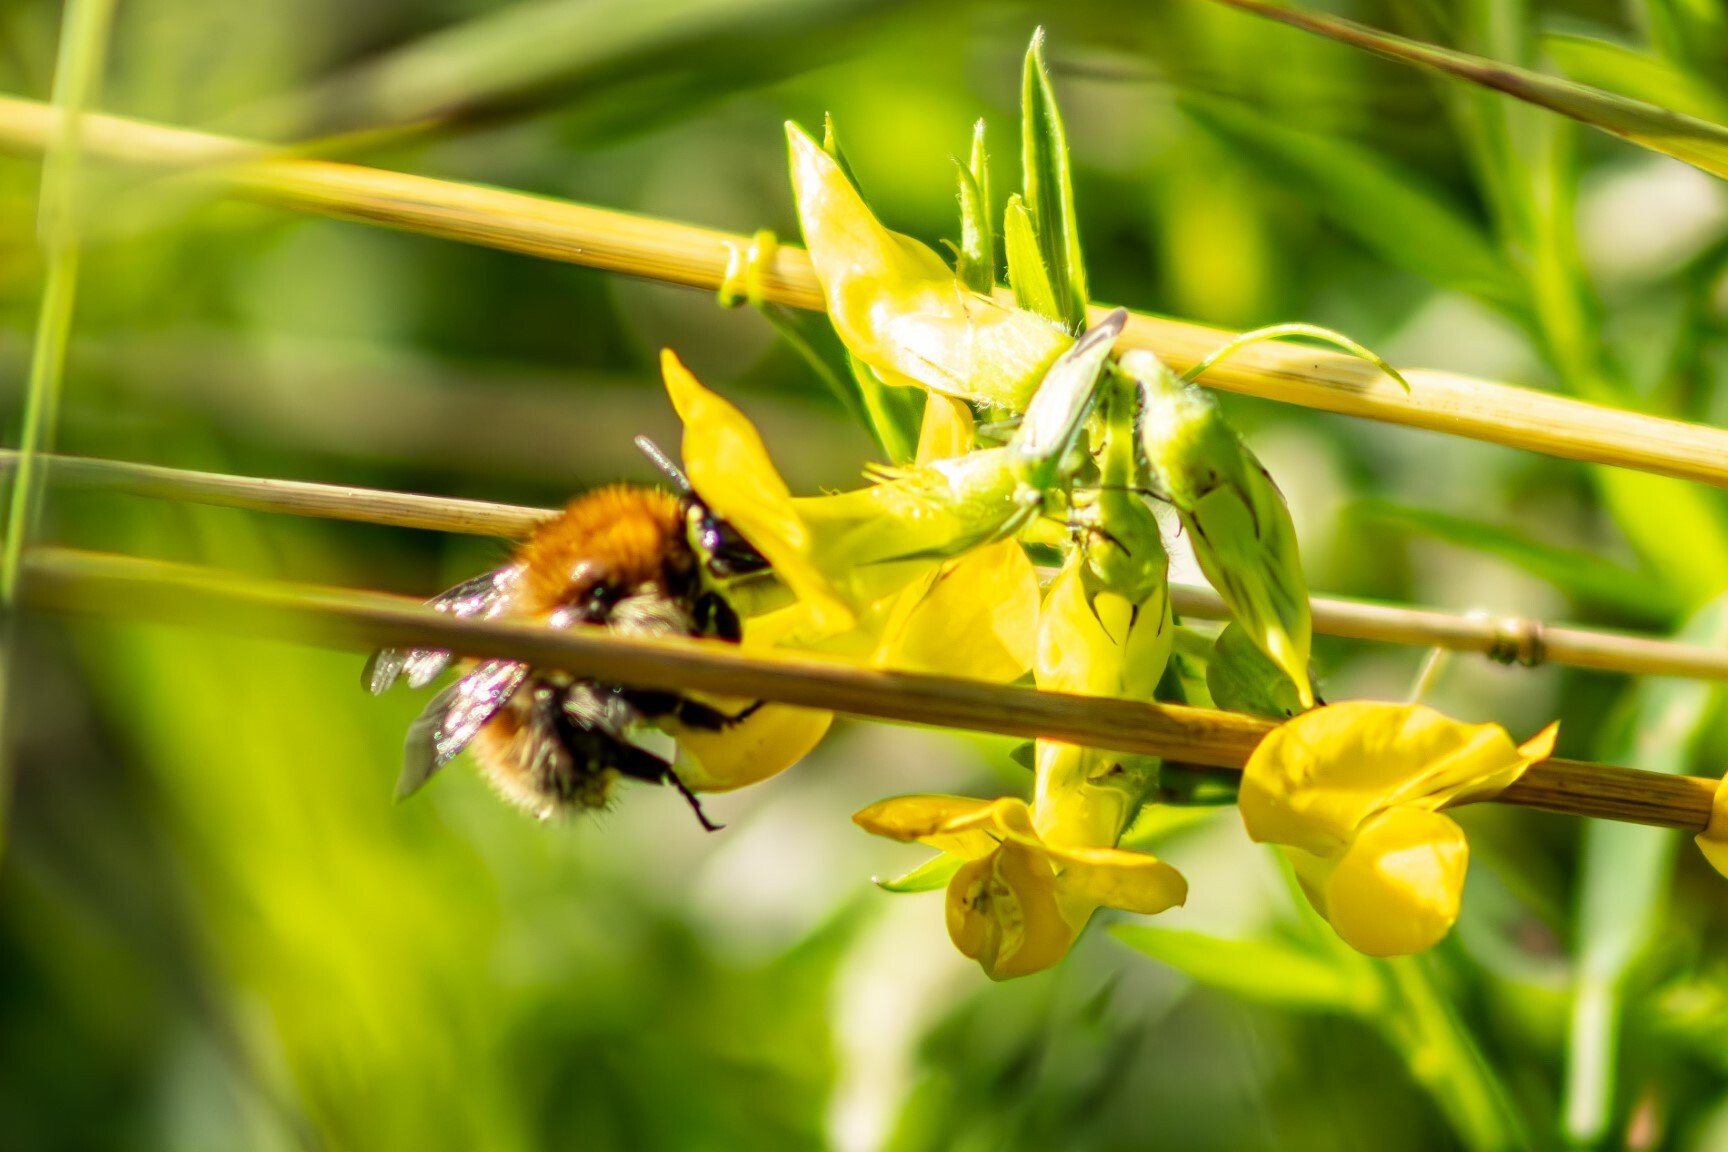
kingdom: Animalia
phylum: Arthropoda
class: Insecta
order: Hymenoptera
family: Apidae
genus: Bombus
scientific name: Bombus pascuorum
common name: Common carder bee
